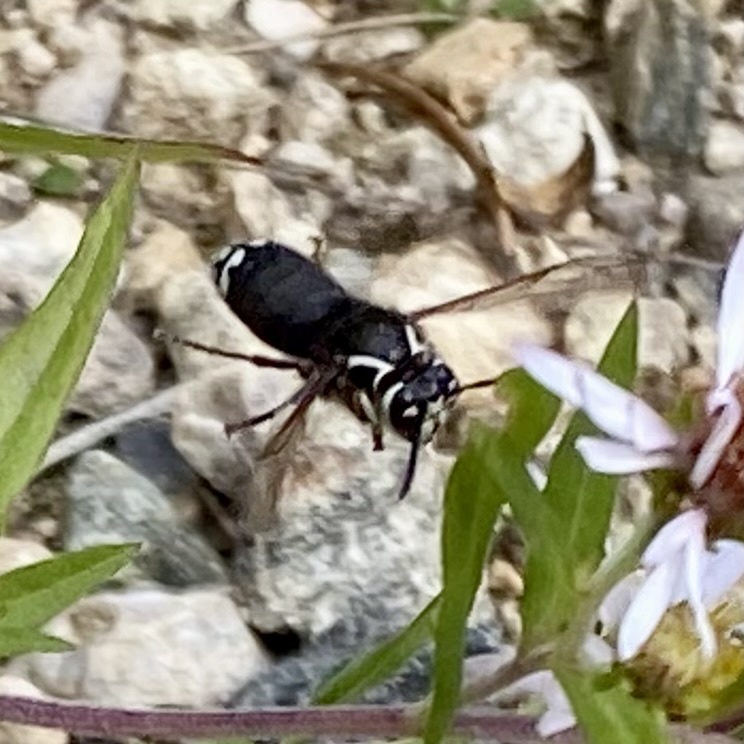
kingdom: Animalia
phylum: Arthropoda
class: Insecta
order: Hymenoptera
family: Vespidae
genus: Dolichovespula
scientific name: Dolichovespula maculata
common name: Bald-faced hornet
